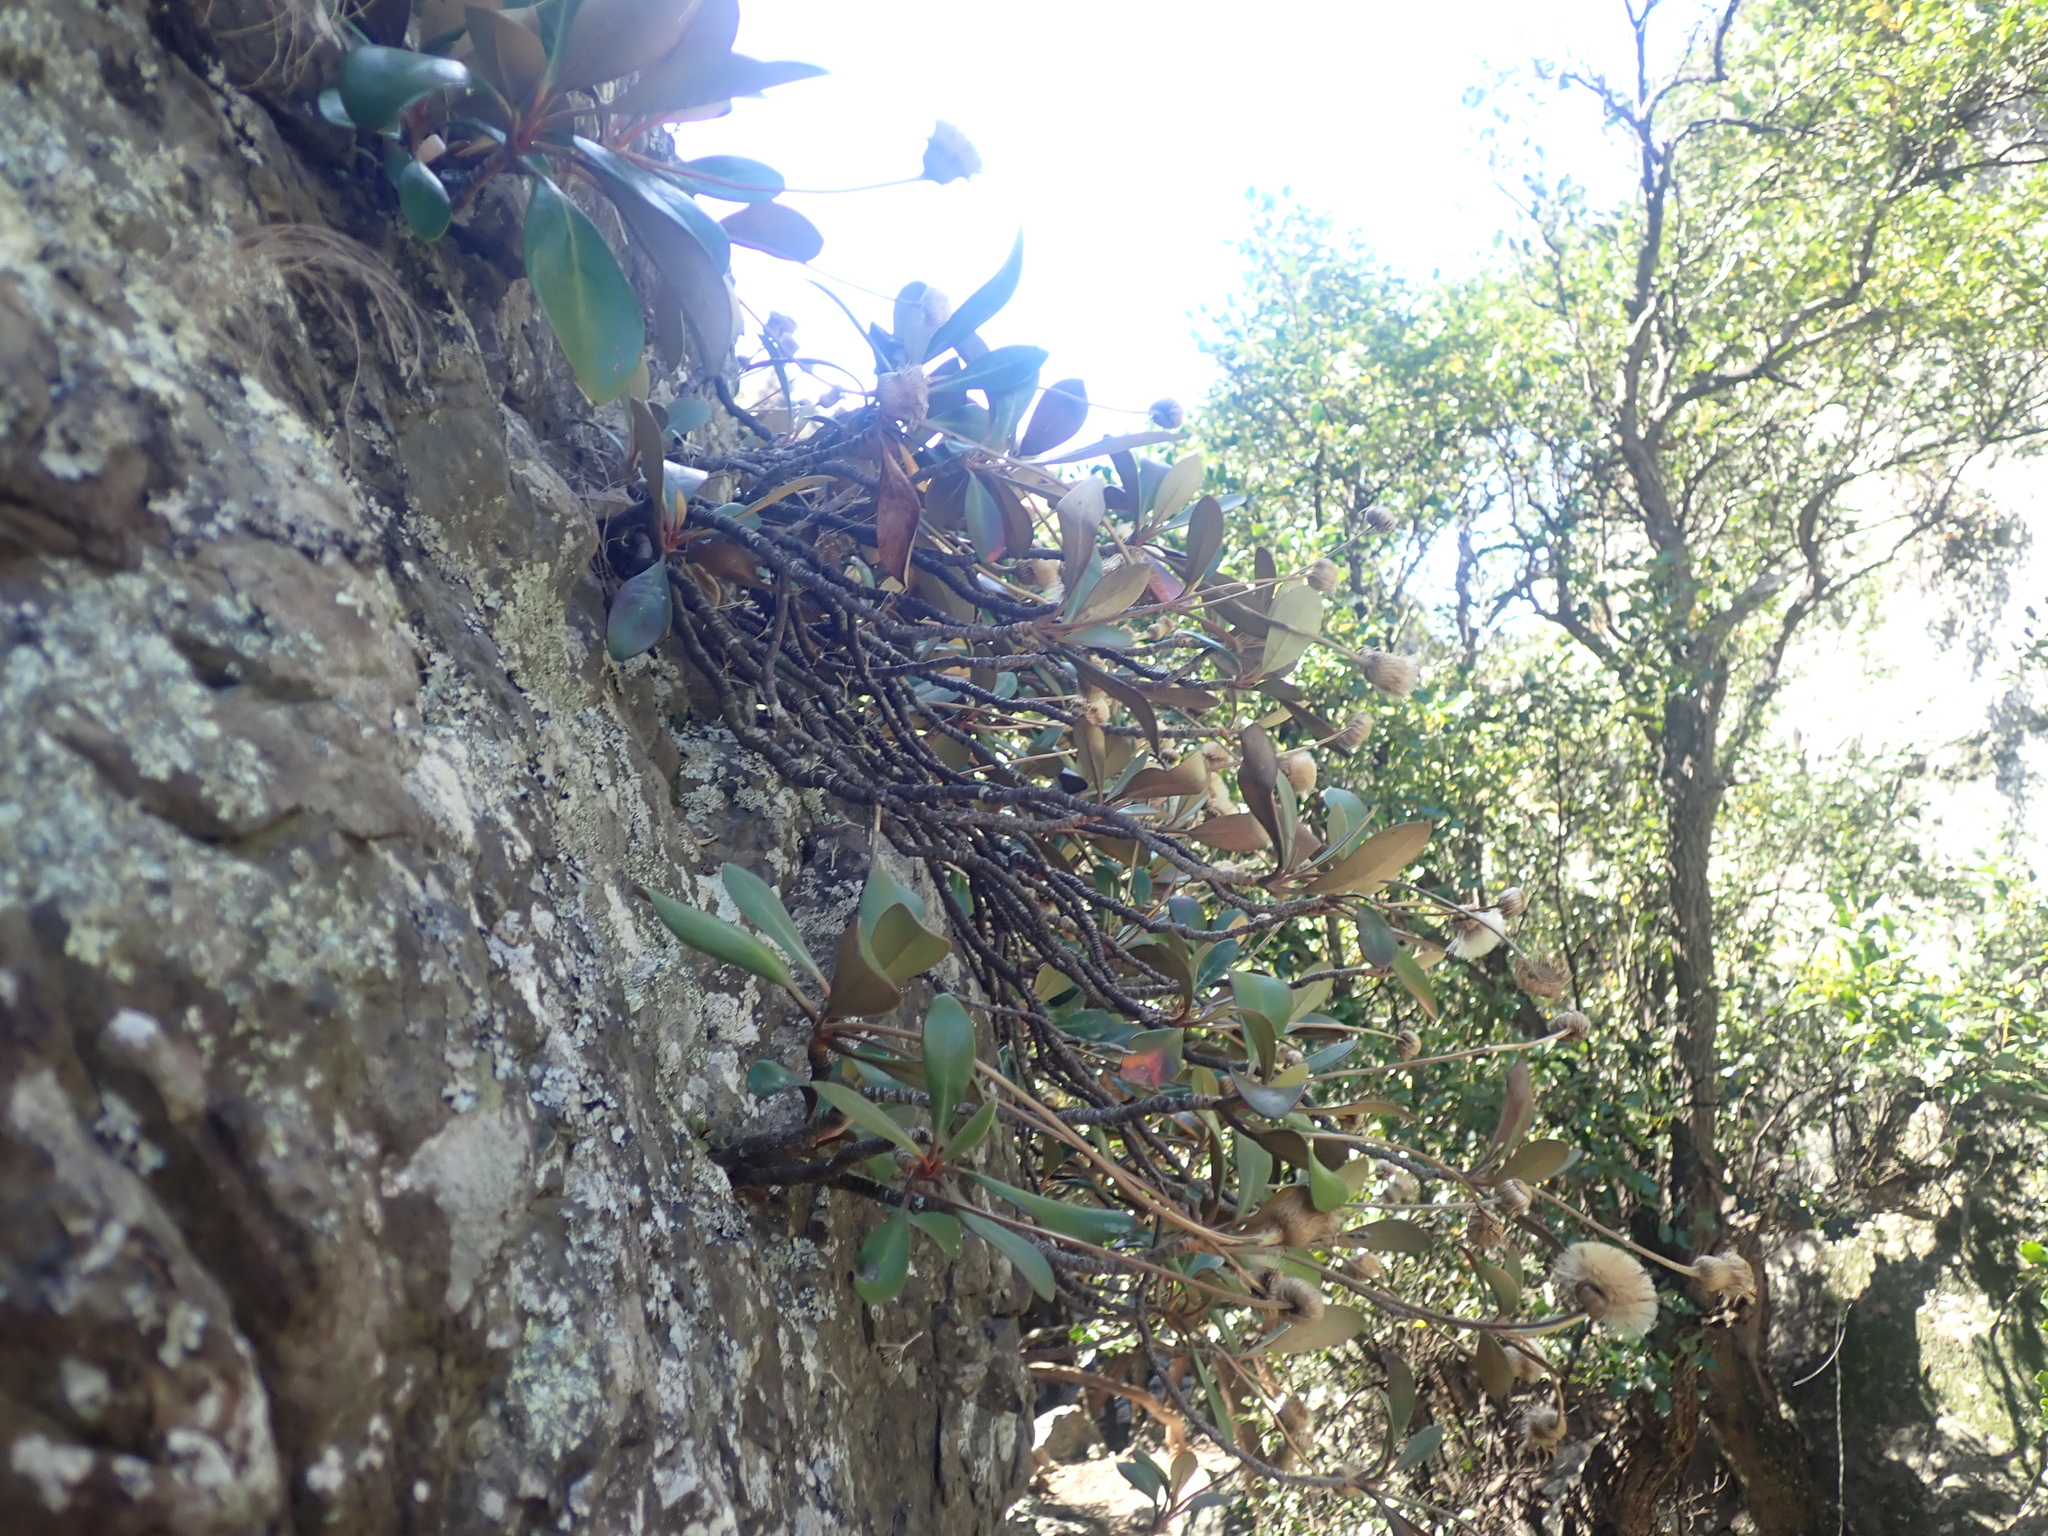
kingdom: Plantae
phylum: Tracheophyta
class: Magnoliopsida
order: Asterales
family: Asteraceae
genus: Pachystegia
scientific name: Pachystegia rufa
